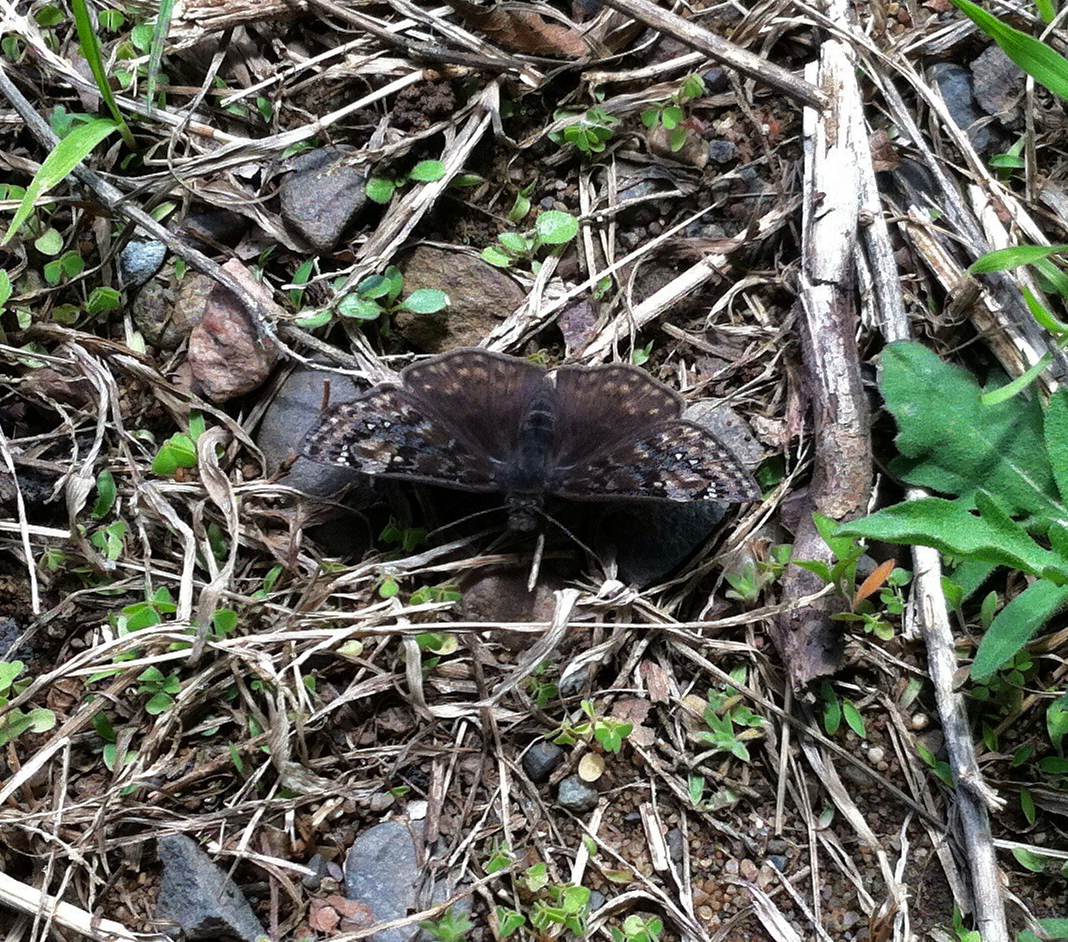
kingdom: Animalia
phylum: Arthropoda
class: Insecta
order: Lepidoptera
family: Hesperiidae
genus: Erynnis
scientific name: Erynnis juvenalis
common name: Juvenal's duskywing
